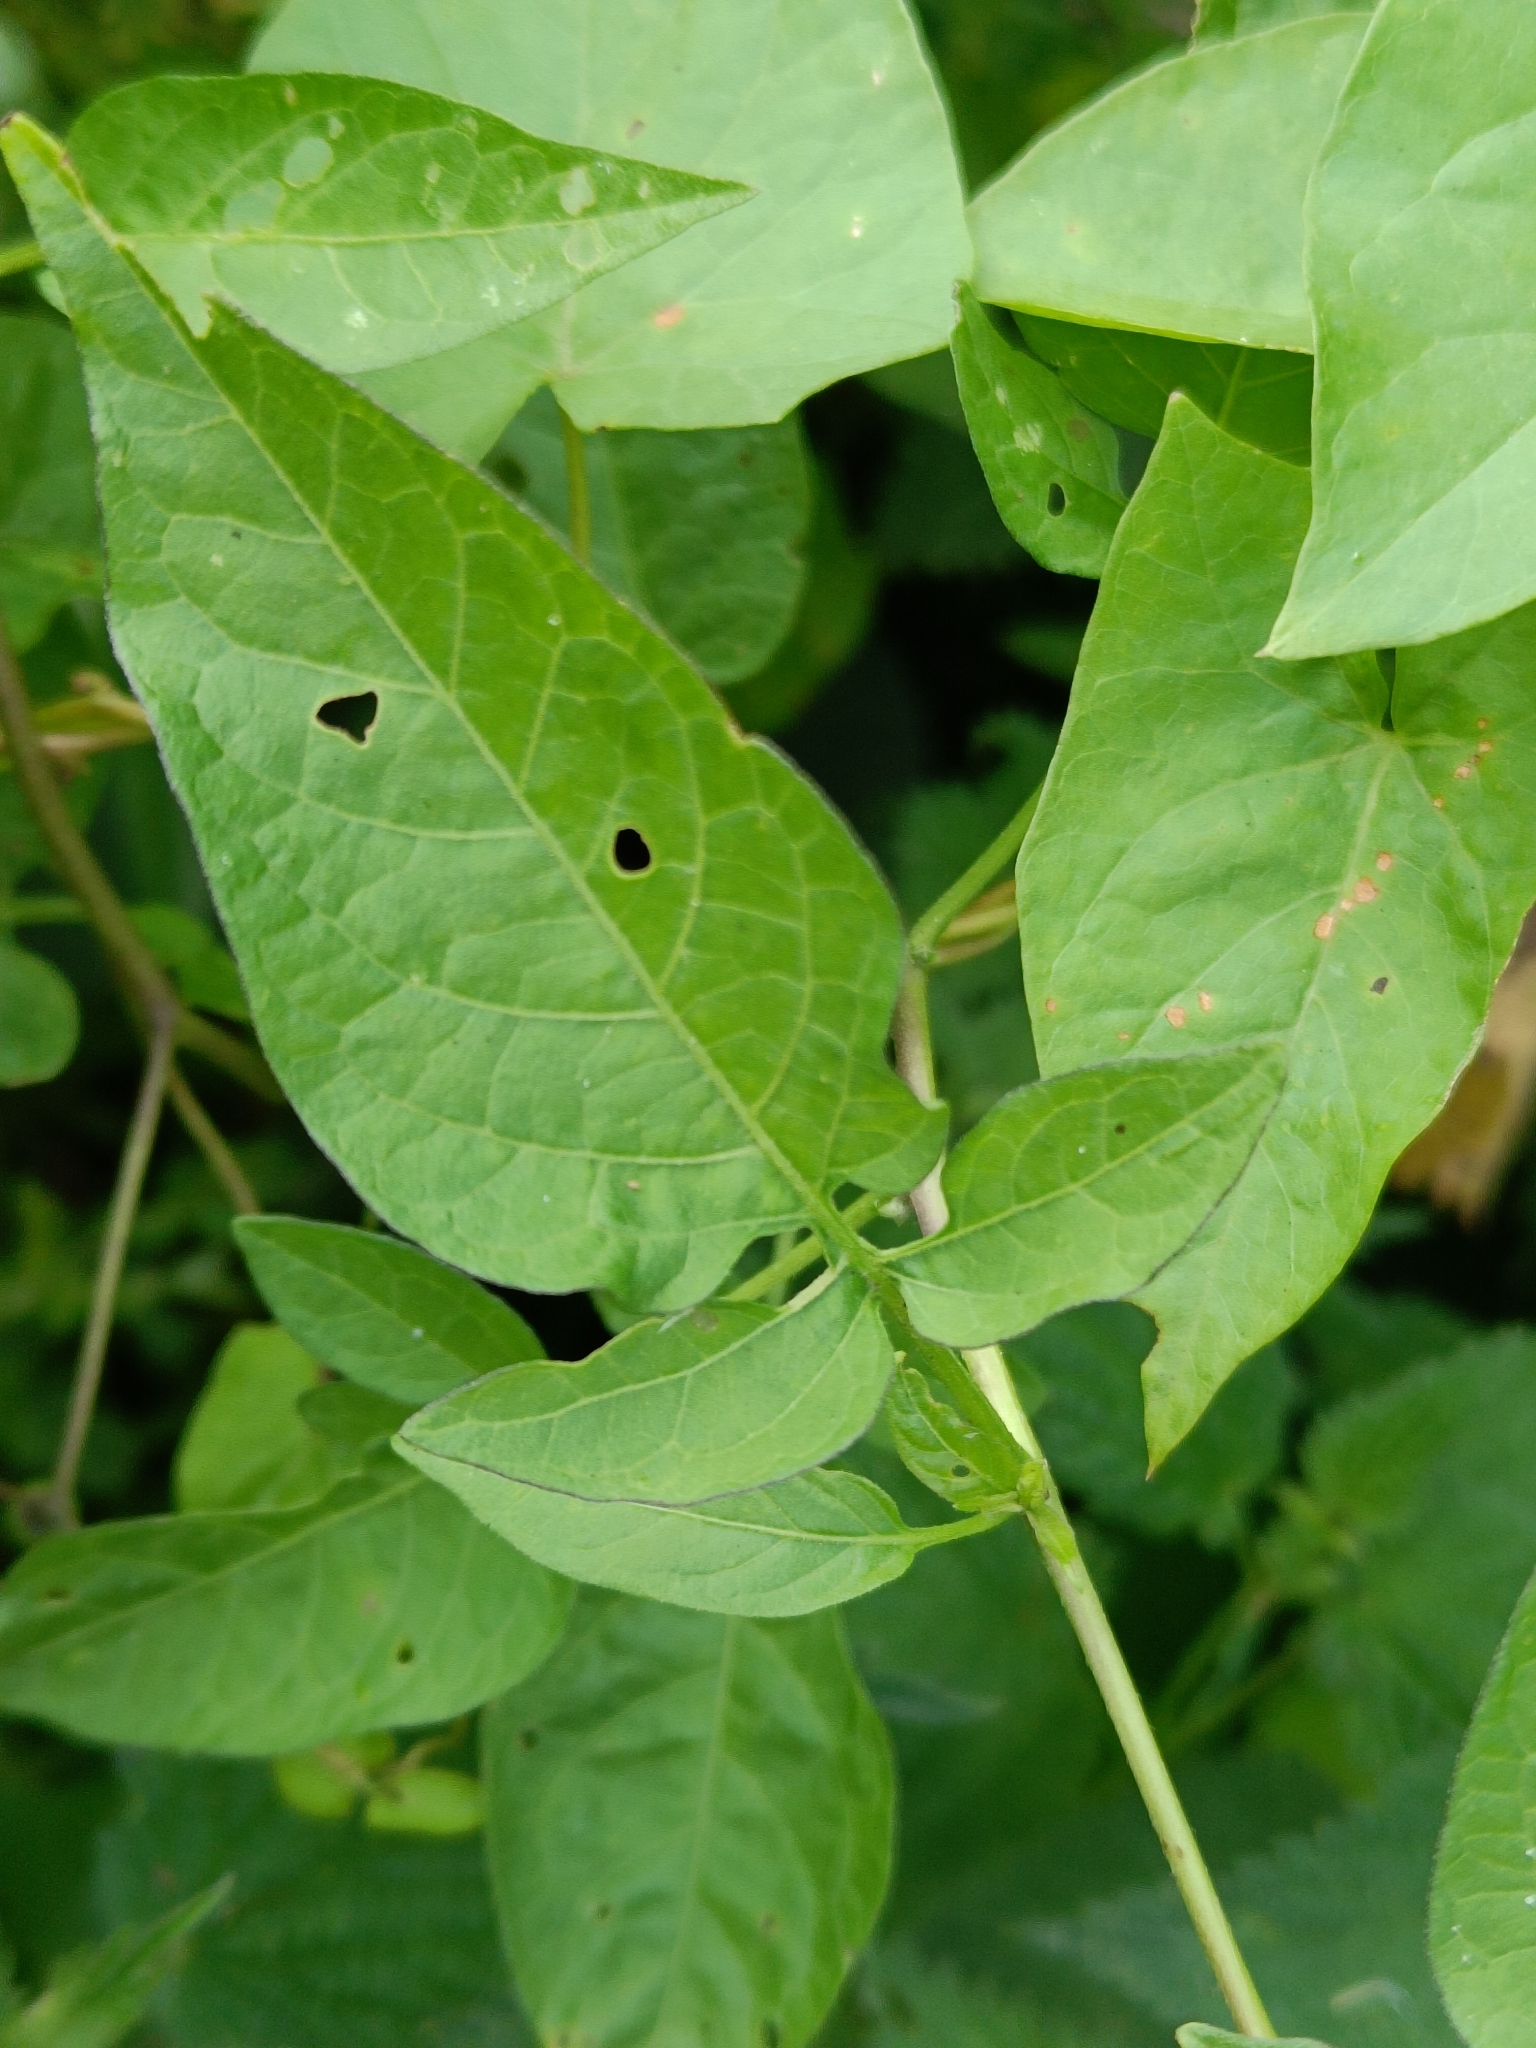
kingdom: Plantae
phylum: Tracheophyta
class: Magnoliopsida
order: Solanales
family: Solanaceae
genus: Solanum
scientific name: Solanum dulcamara
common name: Climbing nightshade
